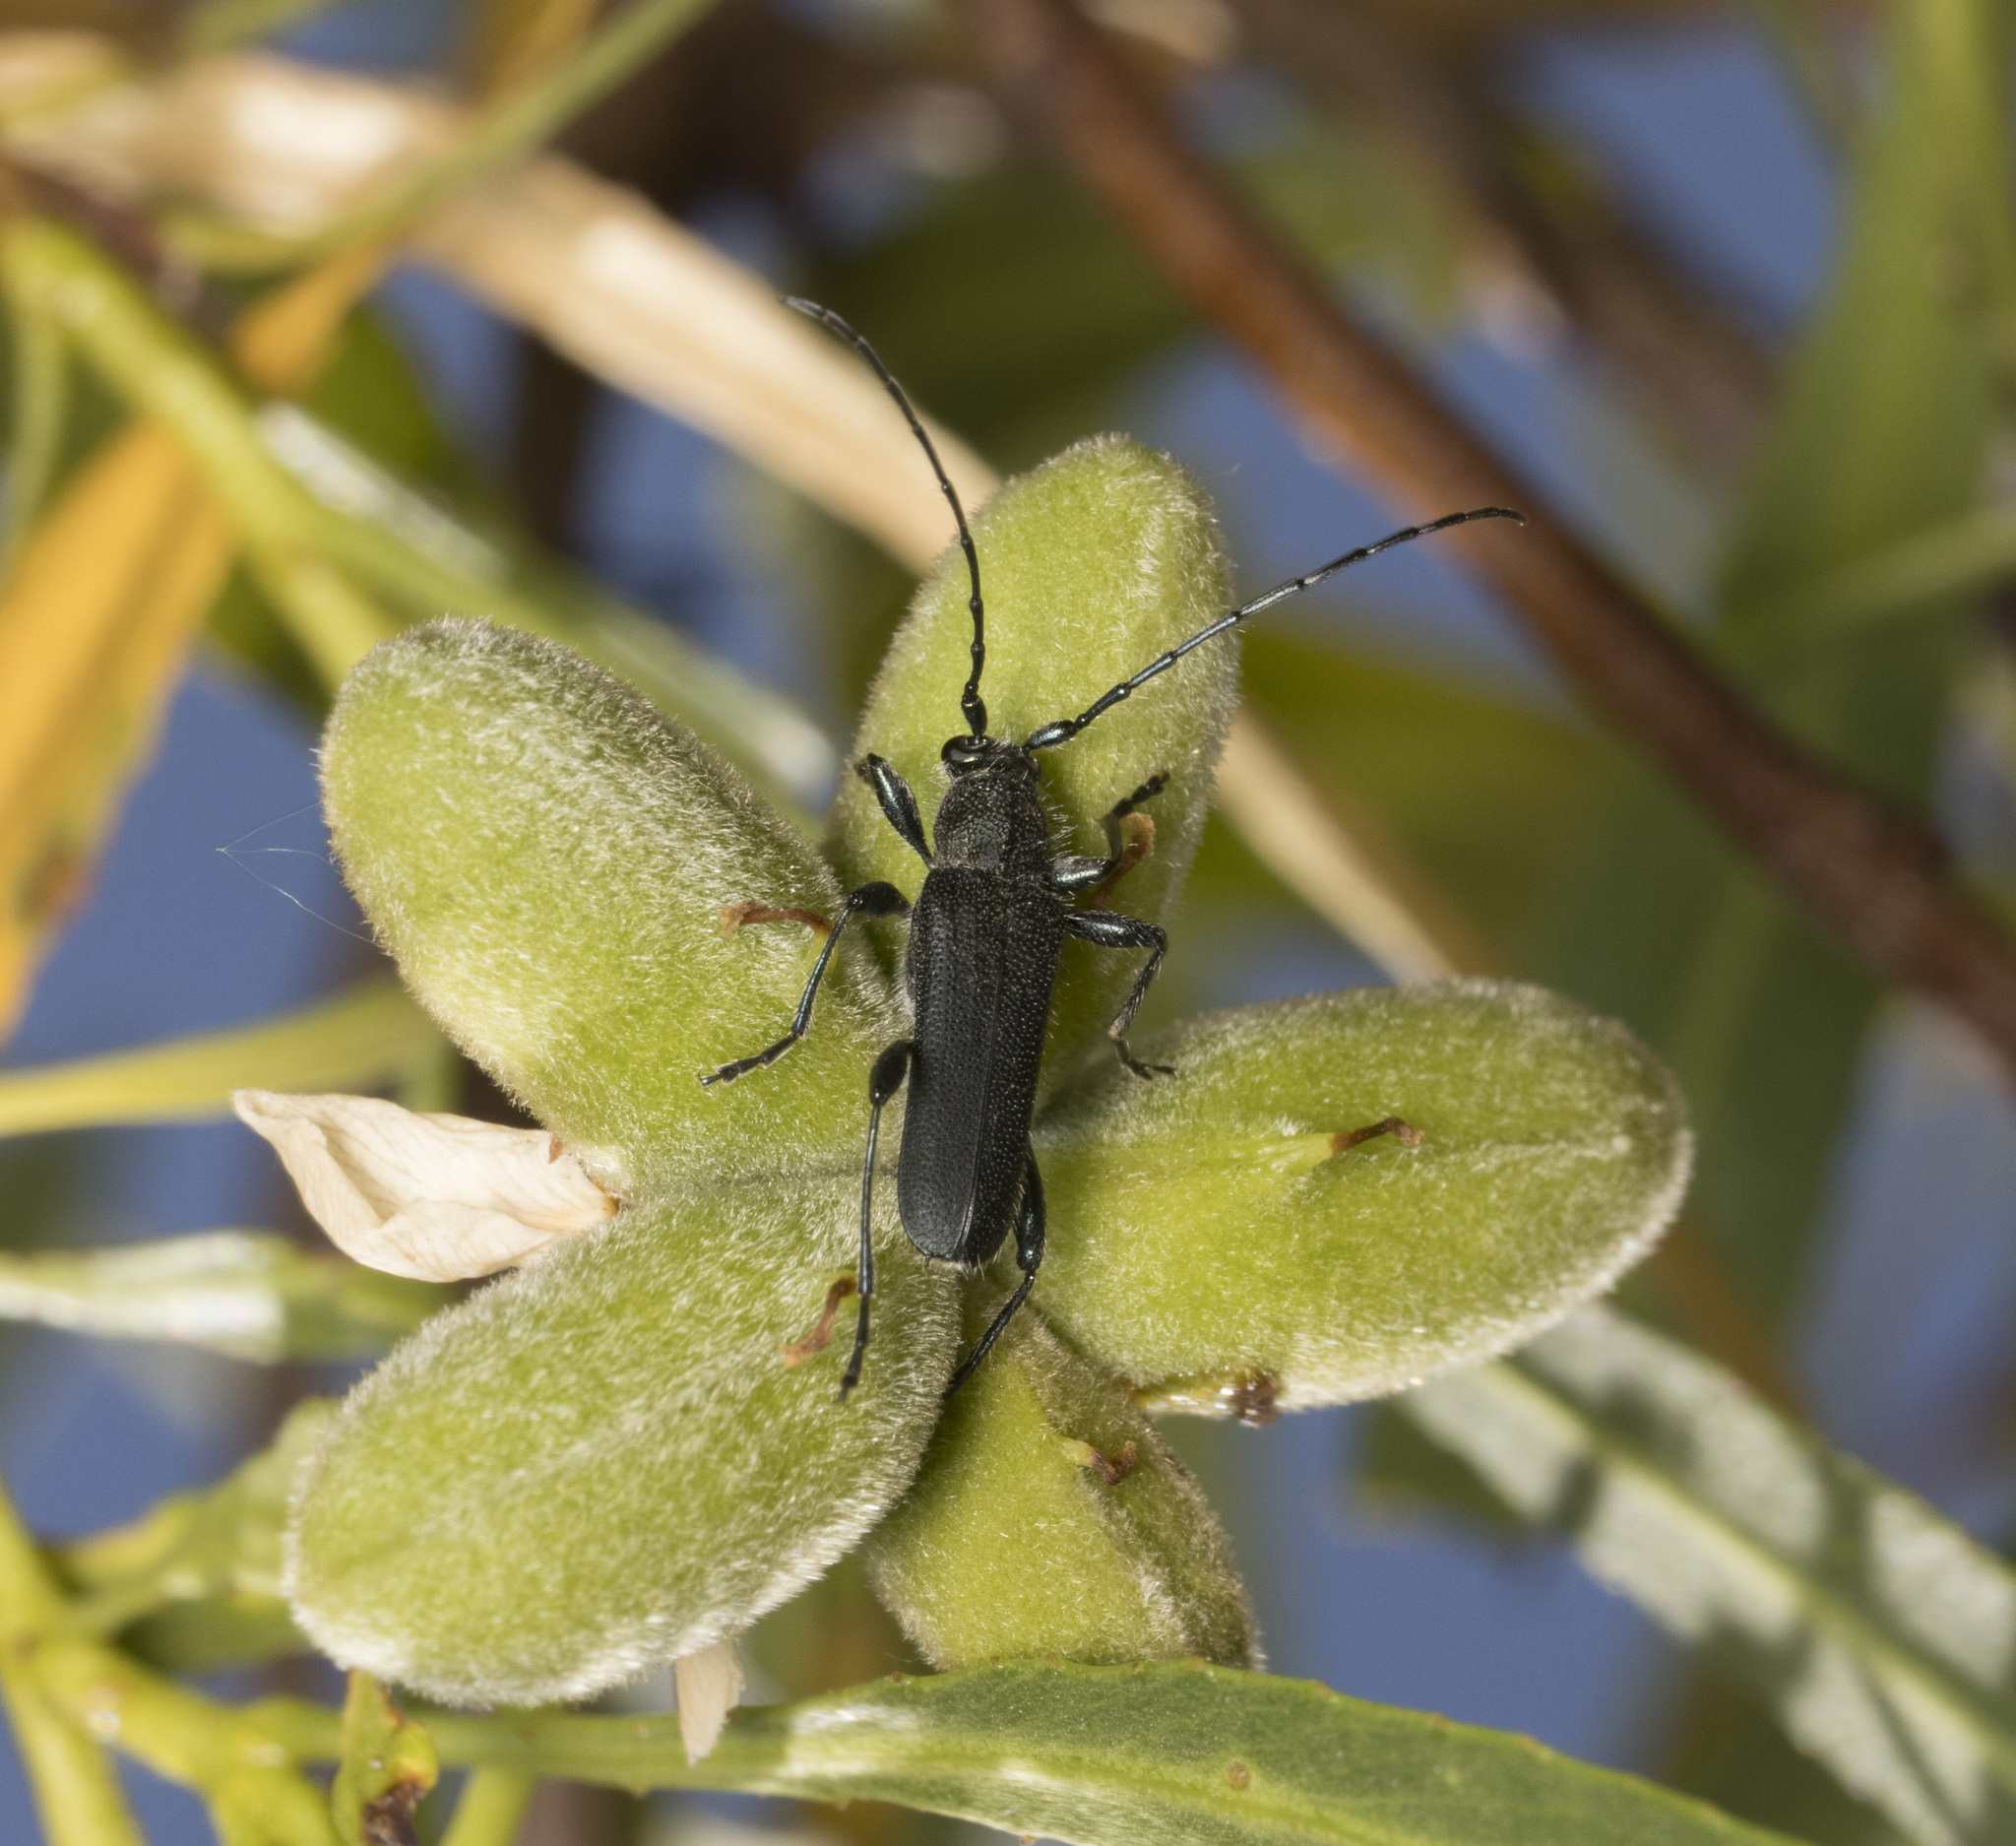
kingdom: Animalia
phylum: Arthropoda
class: Insecta
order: Coleoptera
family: Cerambycidae
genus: Eryphus
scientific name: Eryphus laetus
